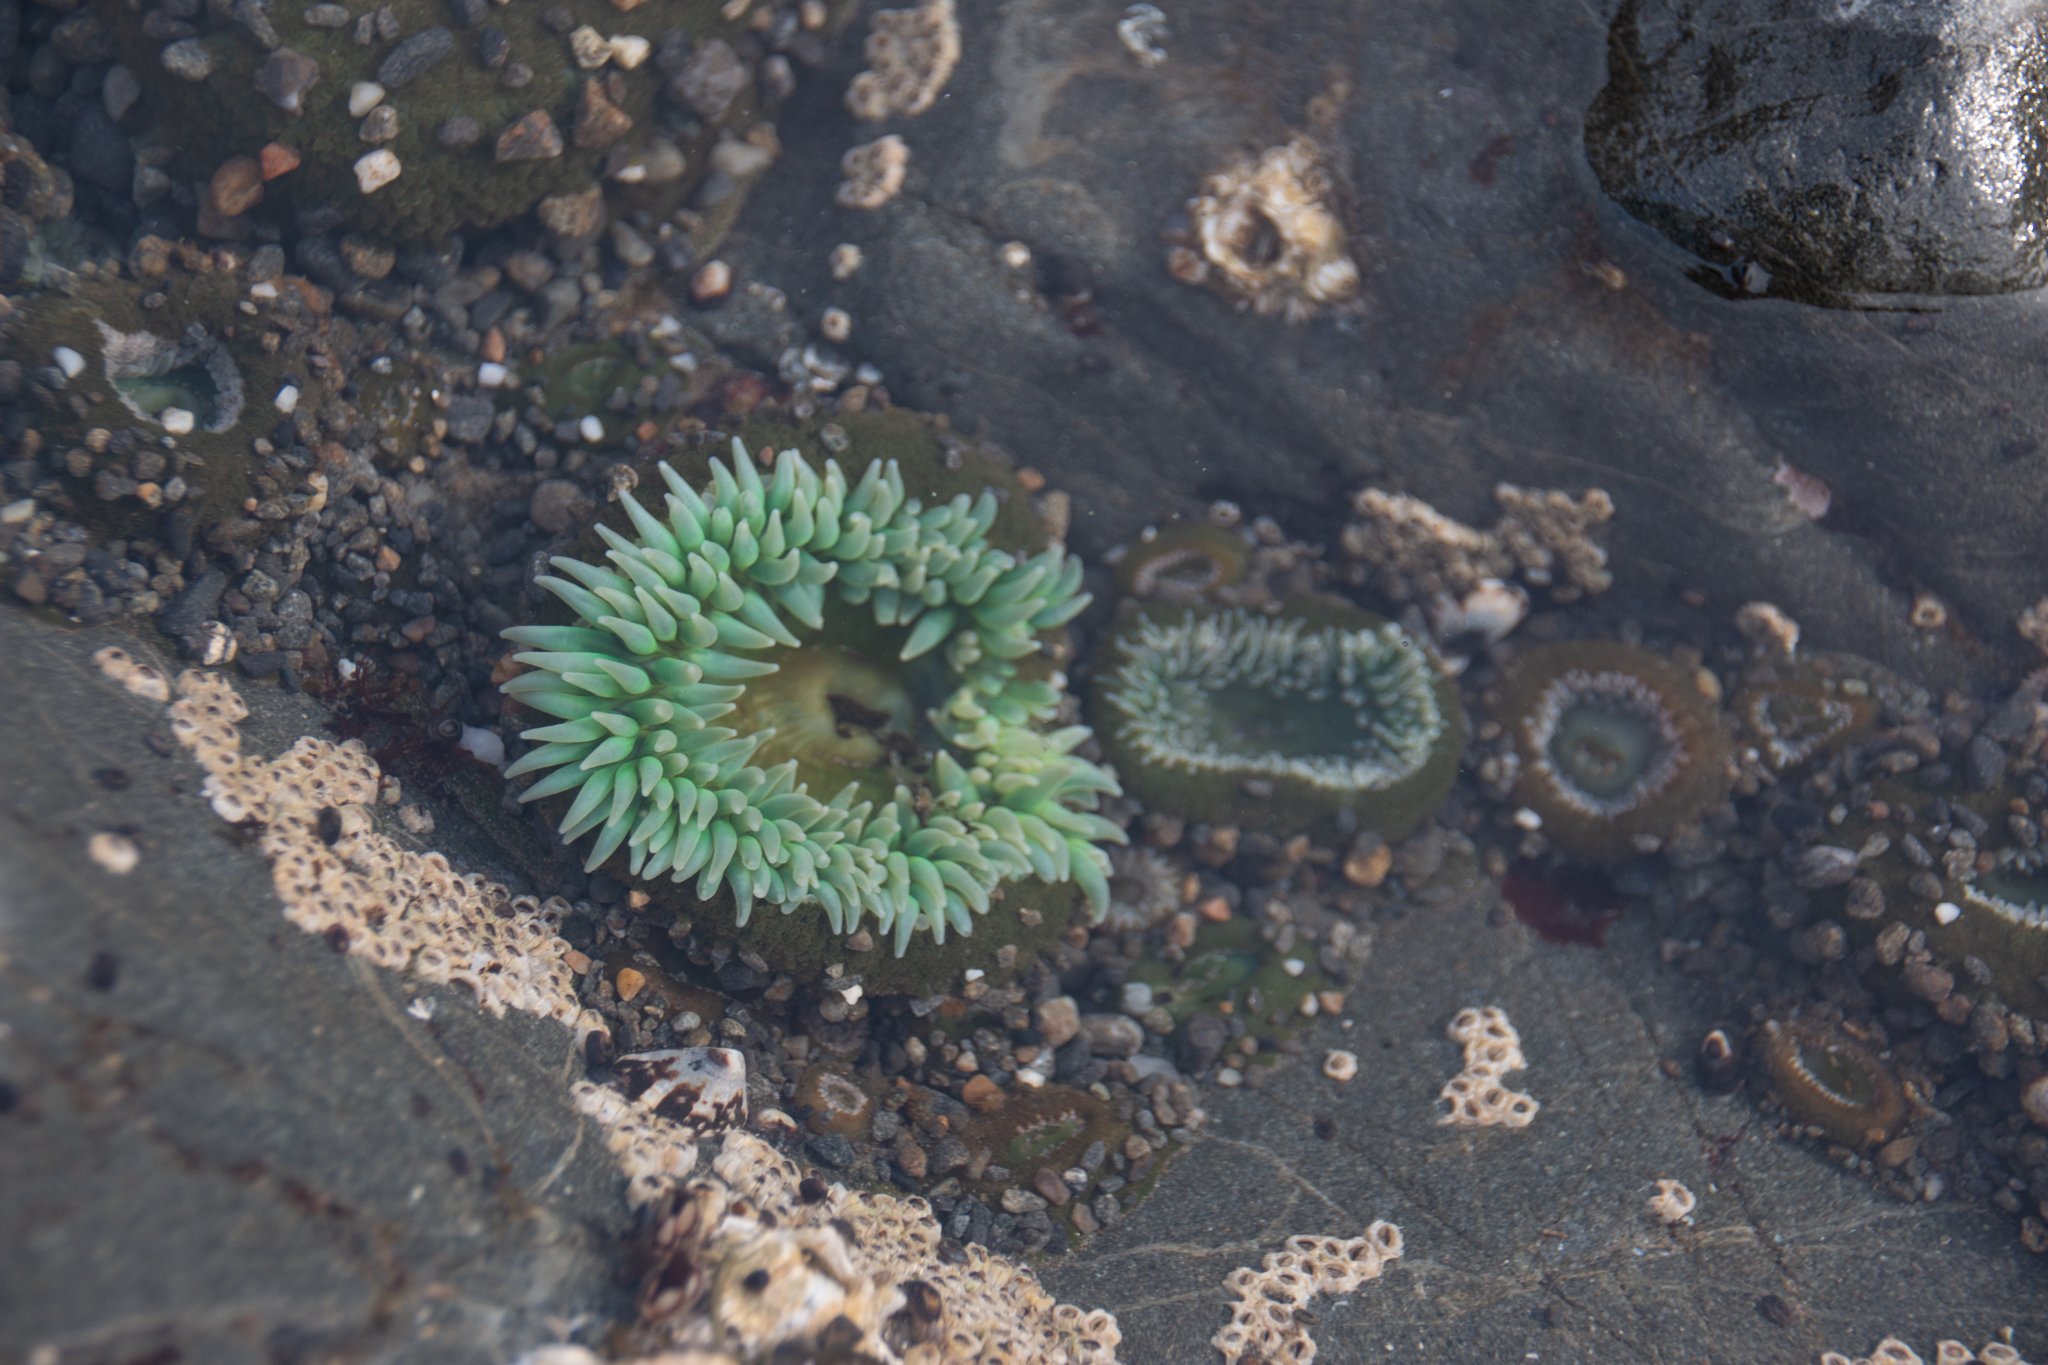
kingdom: Animalia
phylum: Cnidaria
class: Anthozoa
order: Actiniaria
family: Actiniidae
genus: Anthopleura
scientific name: Anthopleura xanthogrammica
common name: Giant green anemone
